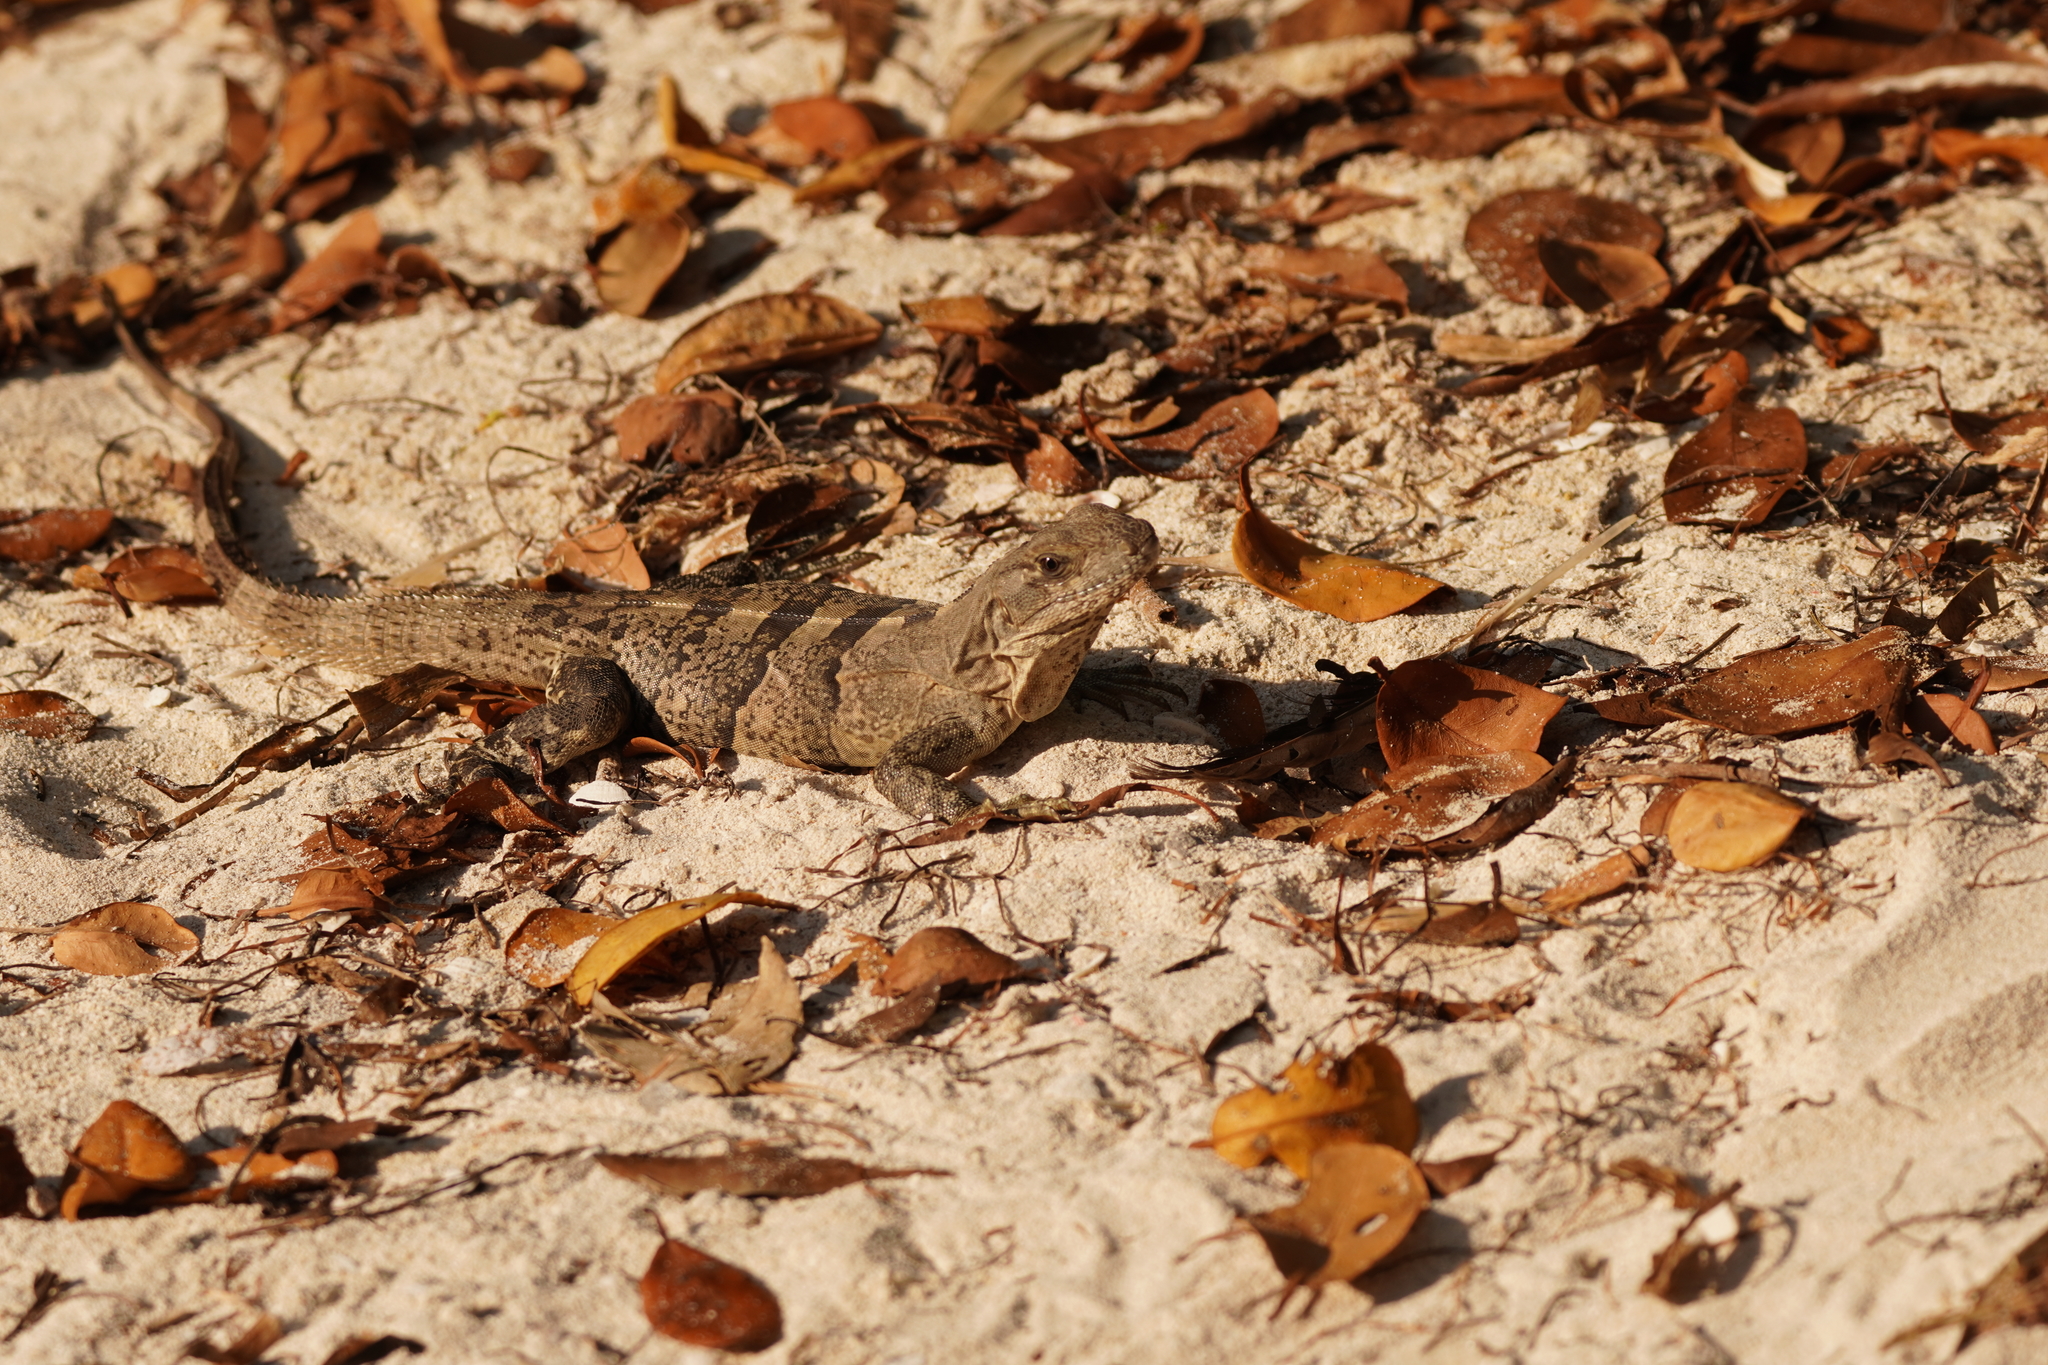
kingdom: Animalia
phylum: Chordata
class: Squamata
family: Iguanidae
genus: Ctenosaura
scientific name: Ctenosaura similis
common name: Black spiny-tailed iguana
